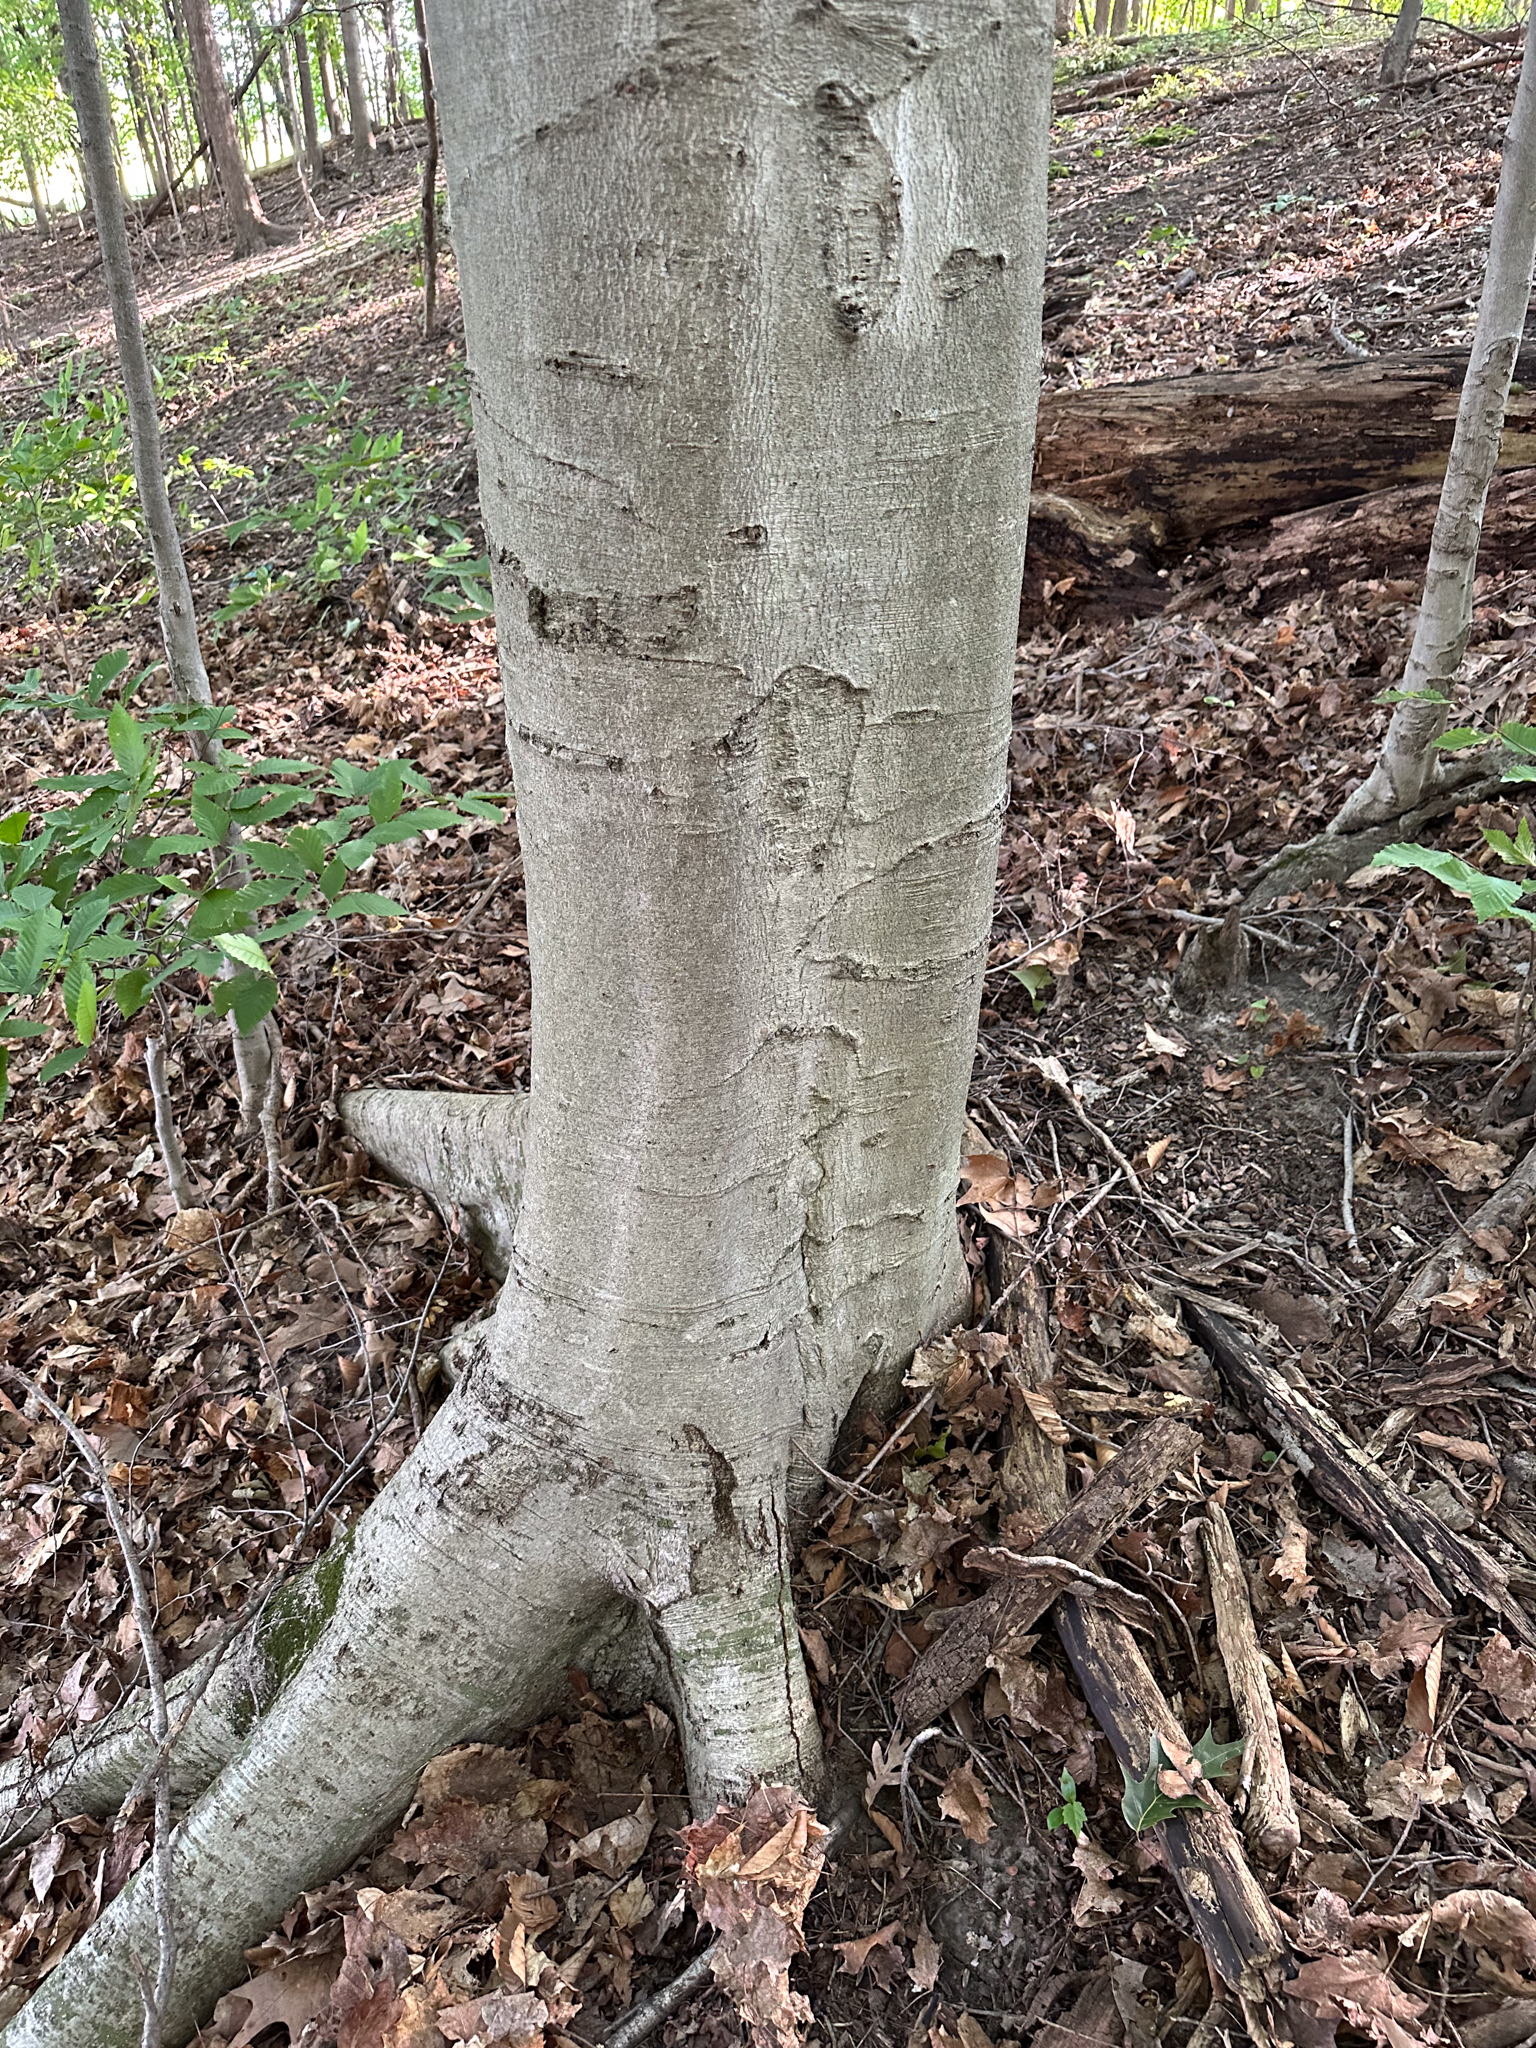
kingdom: Plantae
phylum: Tracheophyta
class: Magnoliopsida
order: Fagales
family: Fagaceae
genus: Fagus
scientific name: Fagus grandifolia
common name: American beech
